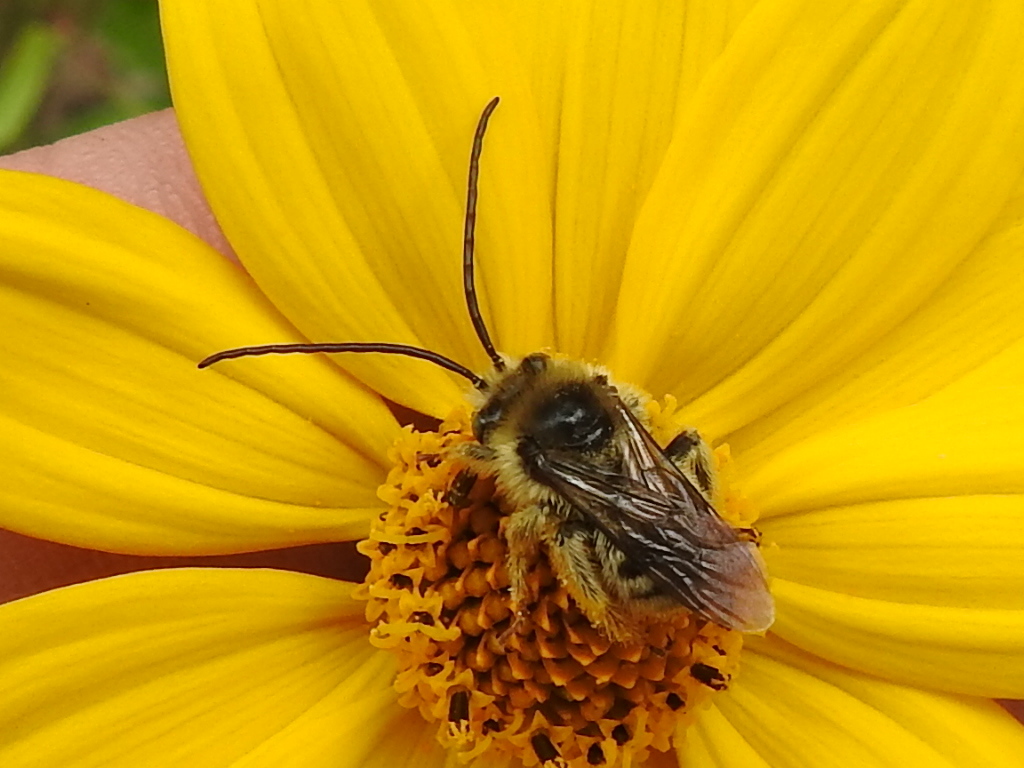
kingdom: Animalia
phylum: Arthropoda
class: Insecta
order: Hymenoptera
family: Apidae
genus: Melissodes
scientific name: Melissodes confusus
